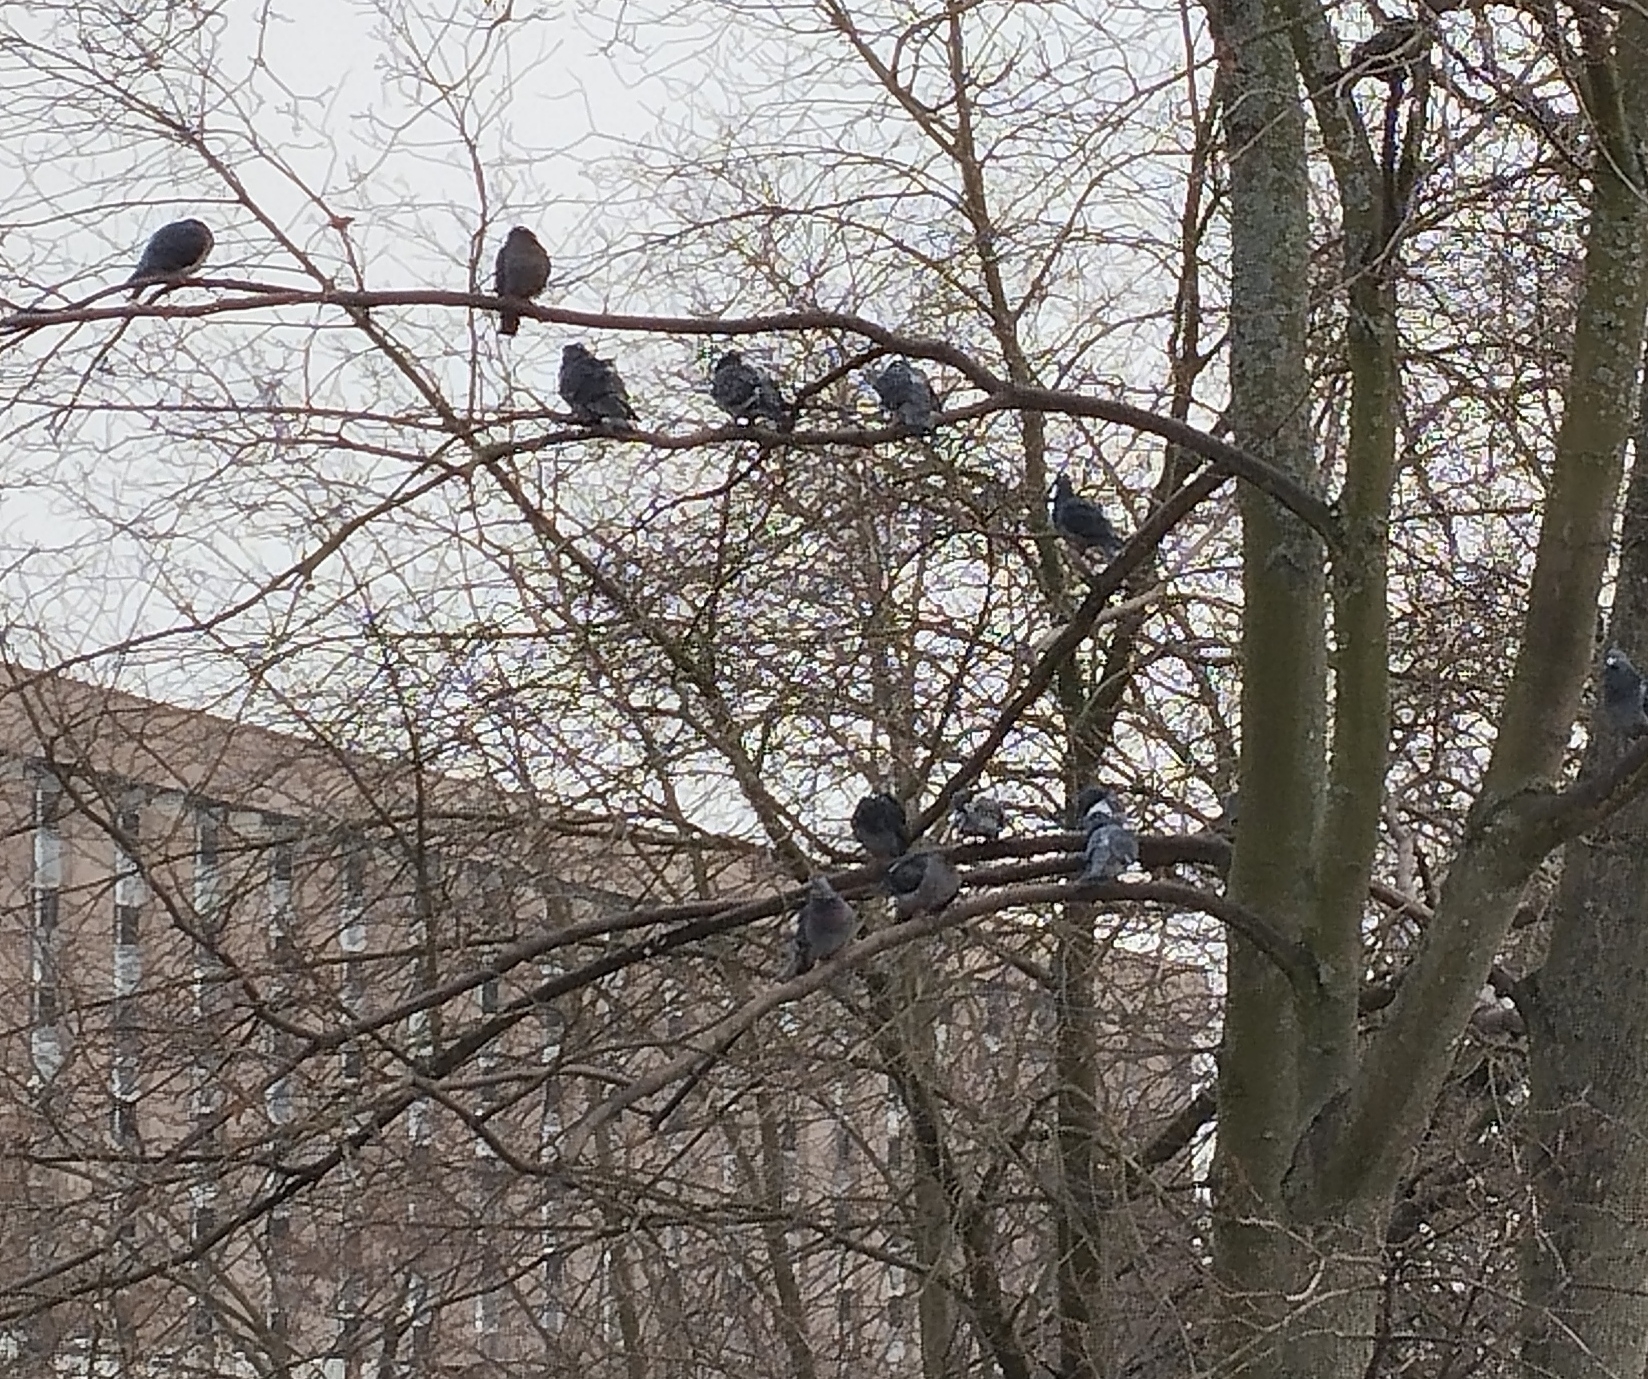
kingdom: Animalia
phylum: Chordata
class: Aves
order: Columbiformes
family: Columbidae
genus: Columba
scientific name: Columba livia
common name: Rock pigeon
